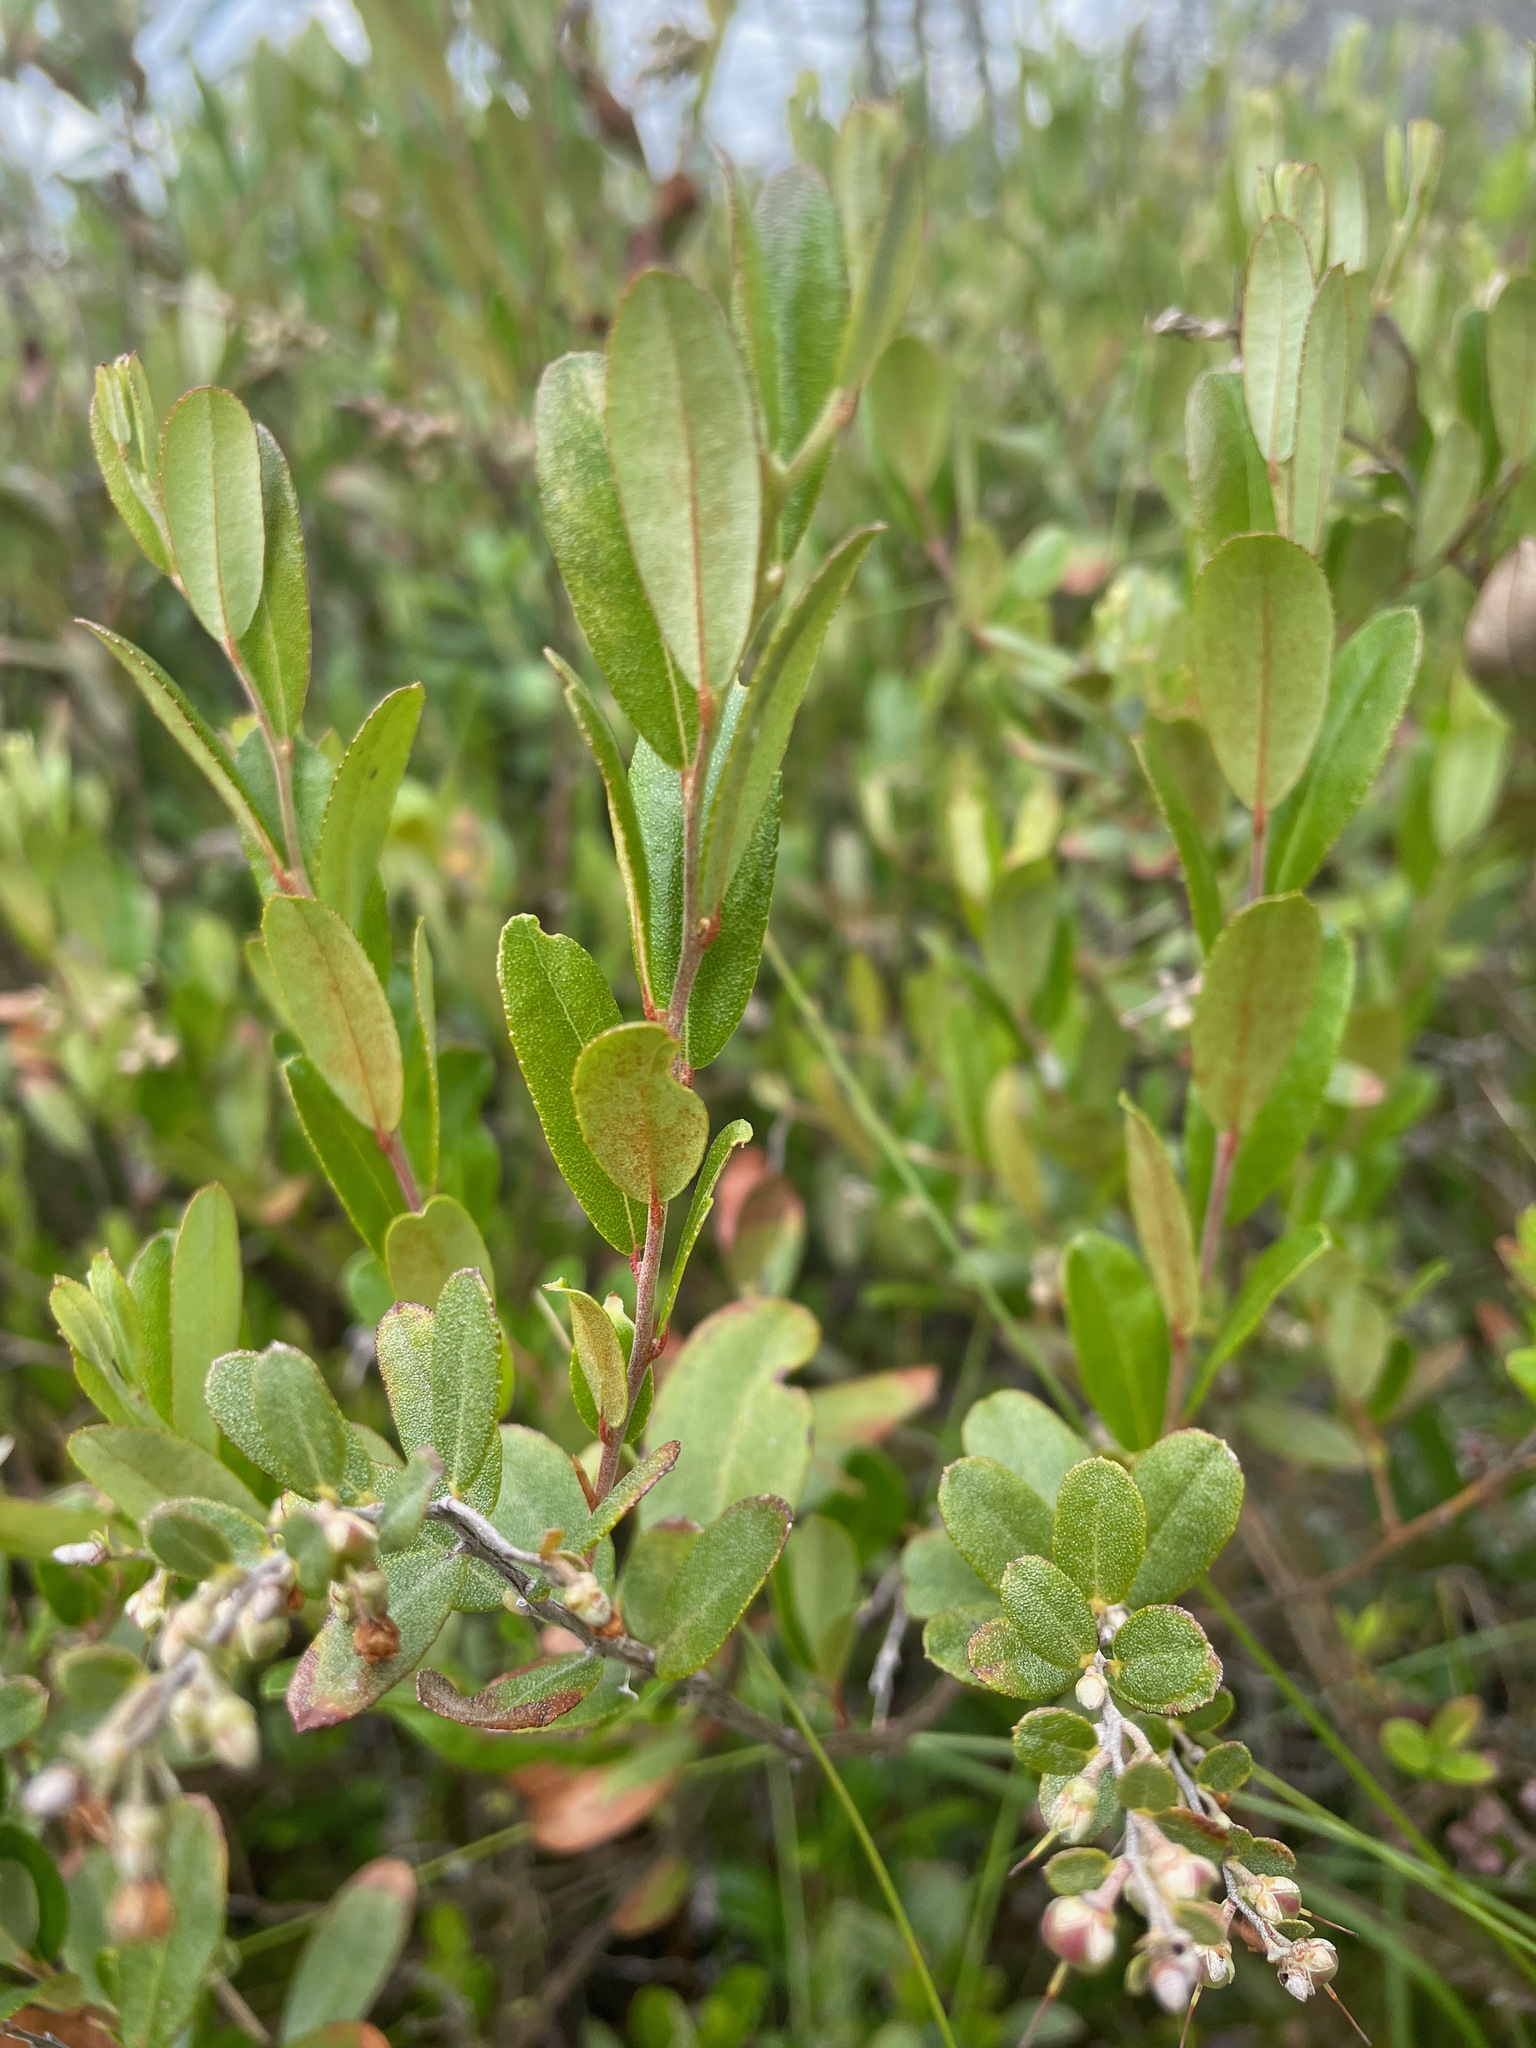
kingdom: Plantae
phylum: Tracheophyta
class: Magnoliopsida
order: Ericales
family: Ericaceae
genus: Chamaedaphne
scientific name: Chamaedaphne calyculata
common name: Leatherleaf
